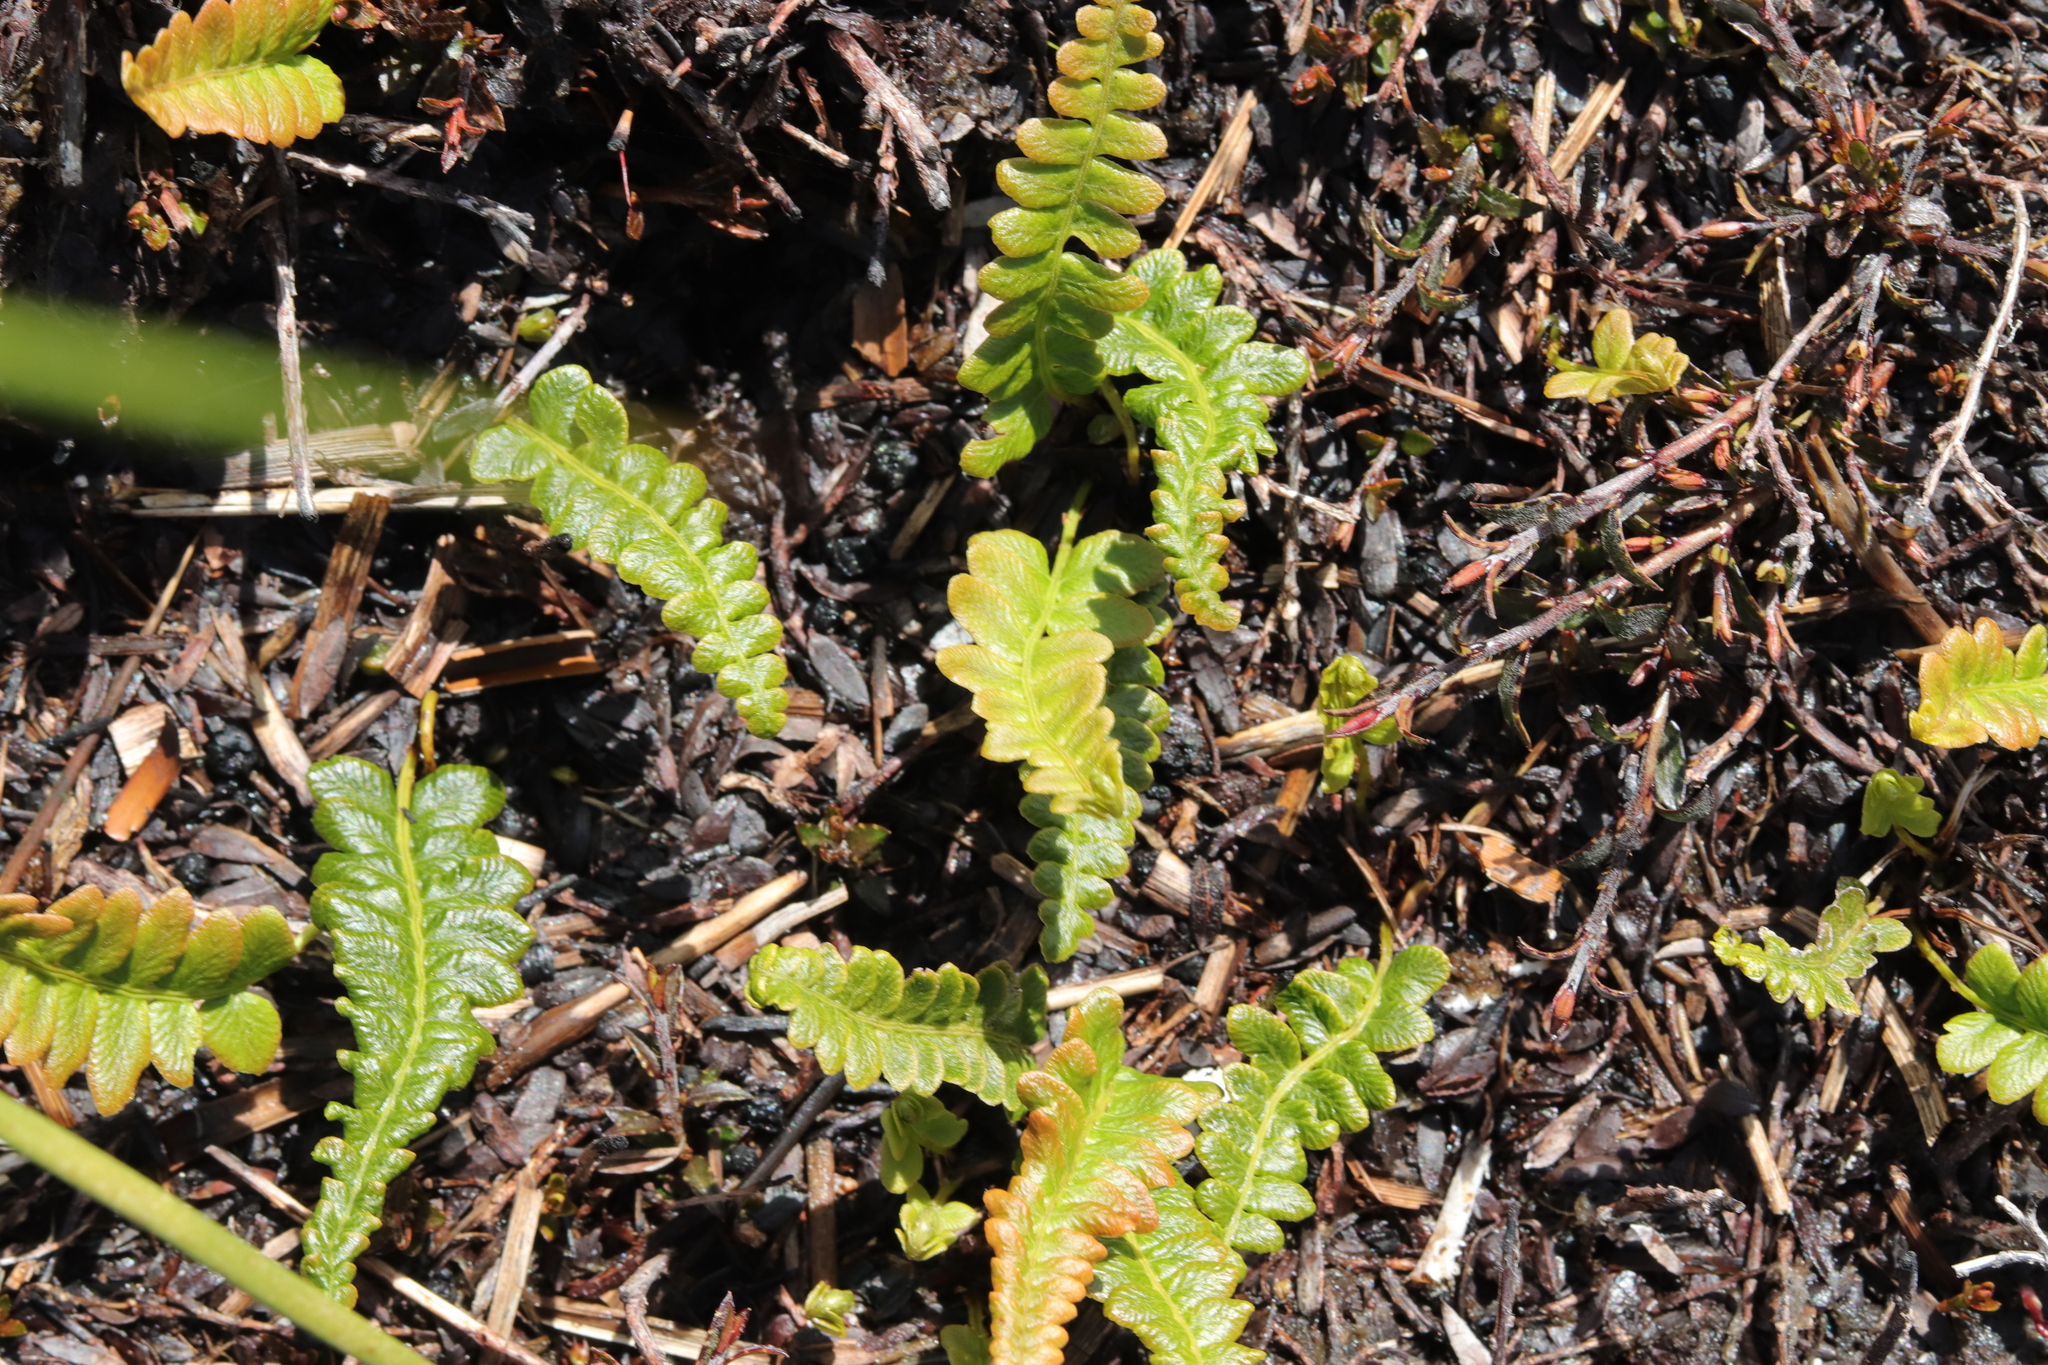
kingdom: Plantae
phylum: Tracheophyta
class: Polypodiopsida
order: Polypodiales
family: Blechnaceae
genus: Austroblechnum
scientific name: Austroblechnum penna-marina
